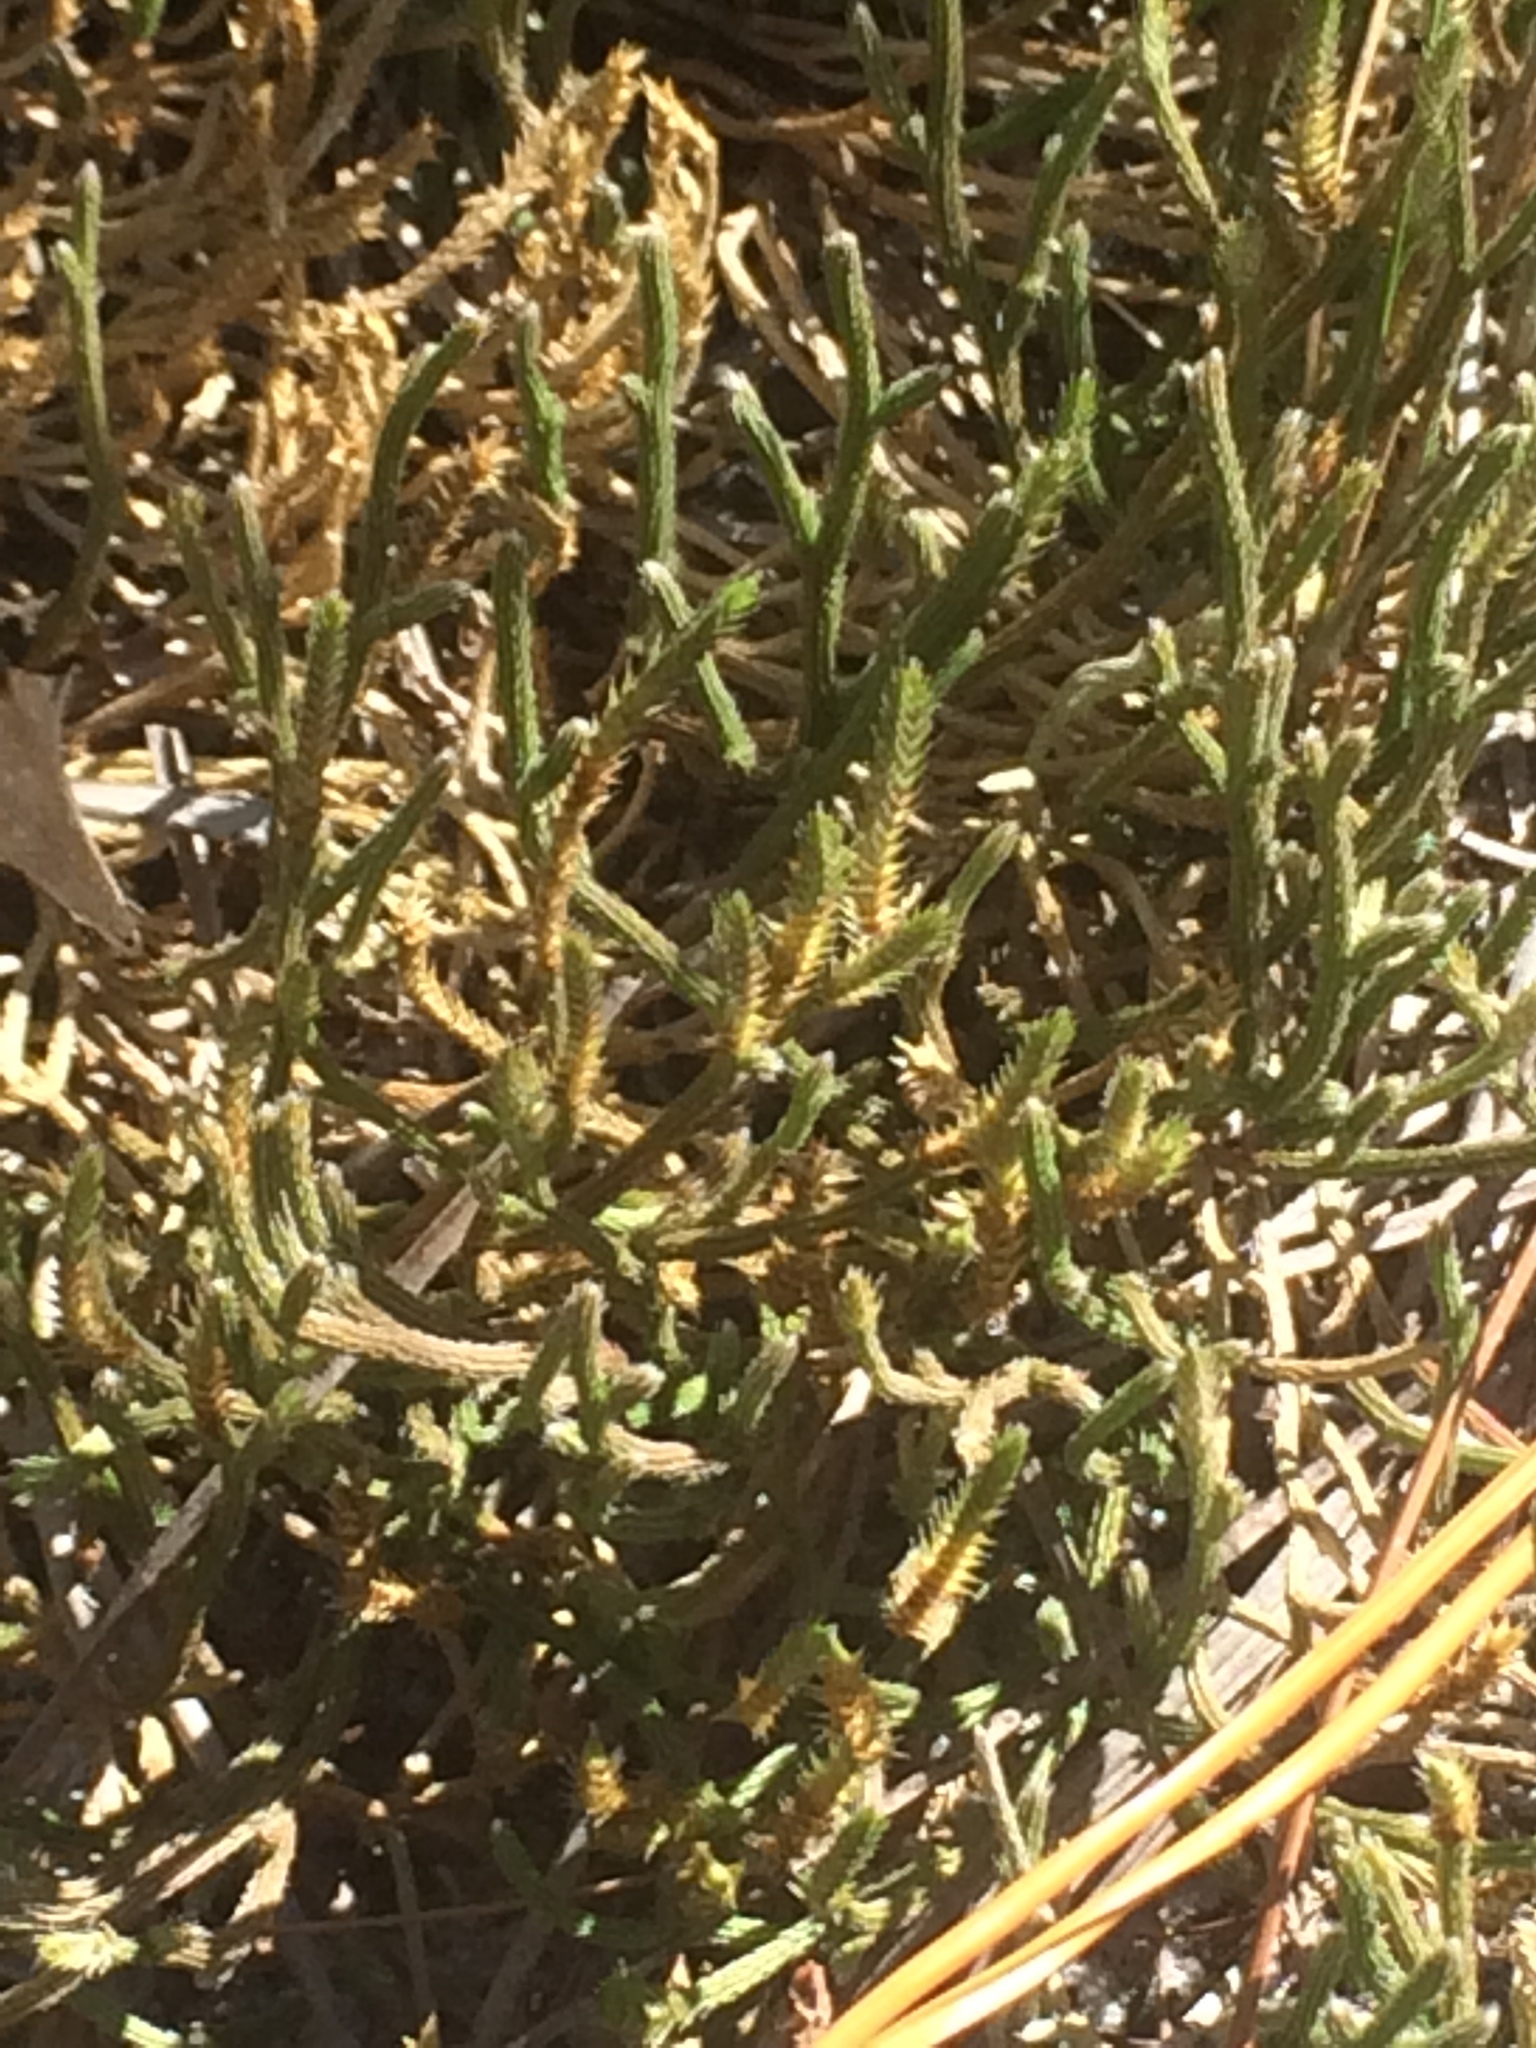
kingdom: Plantae
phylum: Tracheophyta
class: Lycopodiopsida
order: Selaginellales
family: Selaginellaceae
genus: Selaginella
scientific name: Selaginella arenicola
